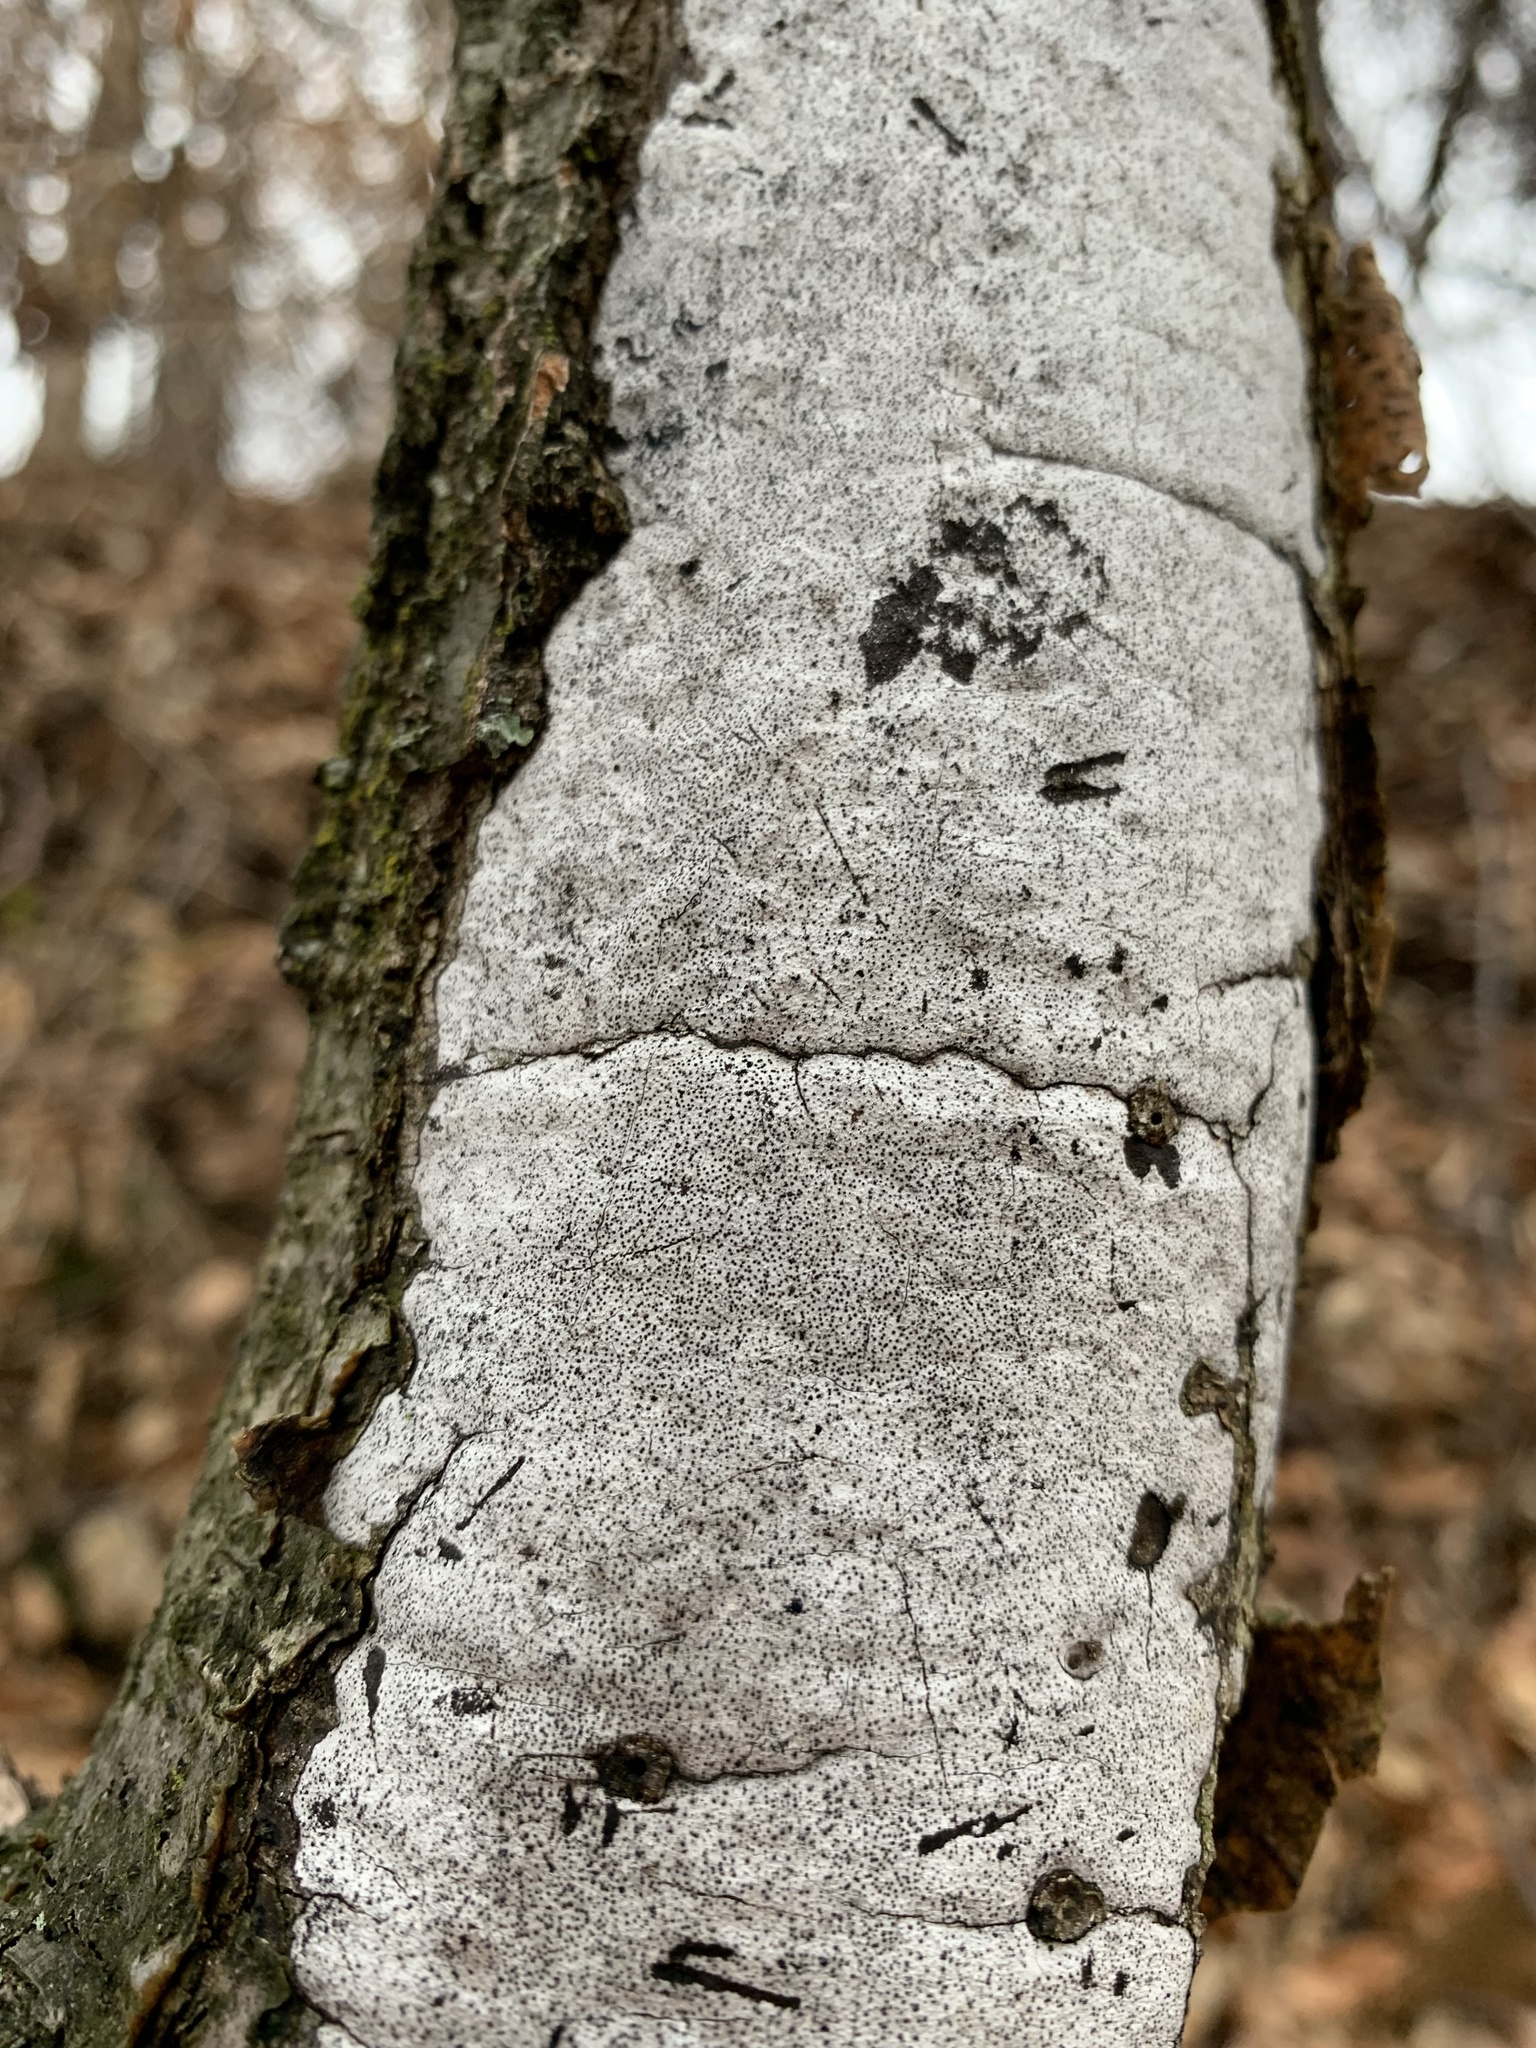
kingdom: Fungi
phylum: Ascomycota
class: Sordariomycetes
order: Xylariales
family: Graphostromataceae
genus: Biscogniauxia
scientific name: Biscogniauxia atropunctata
